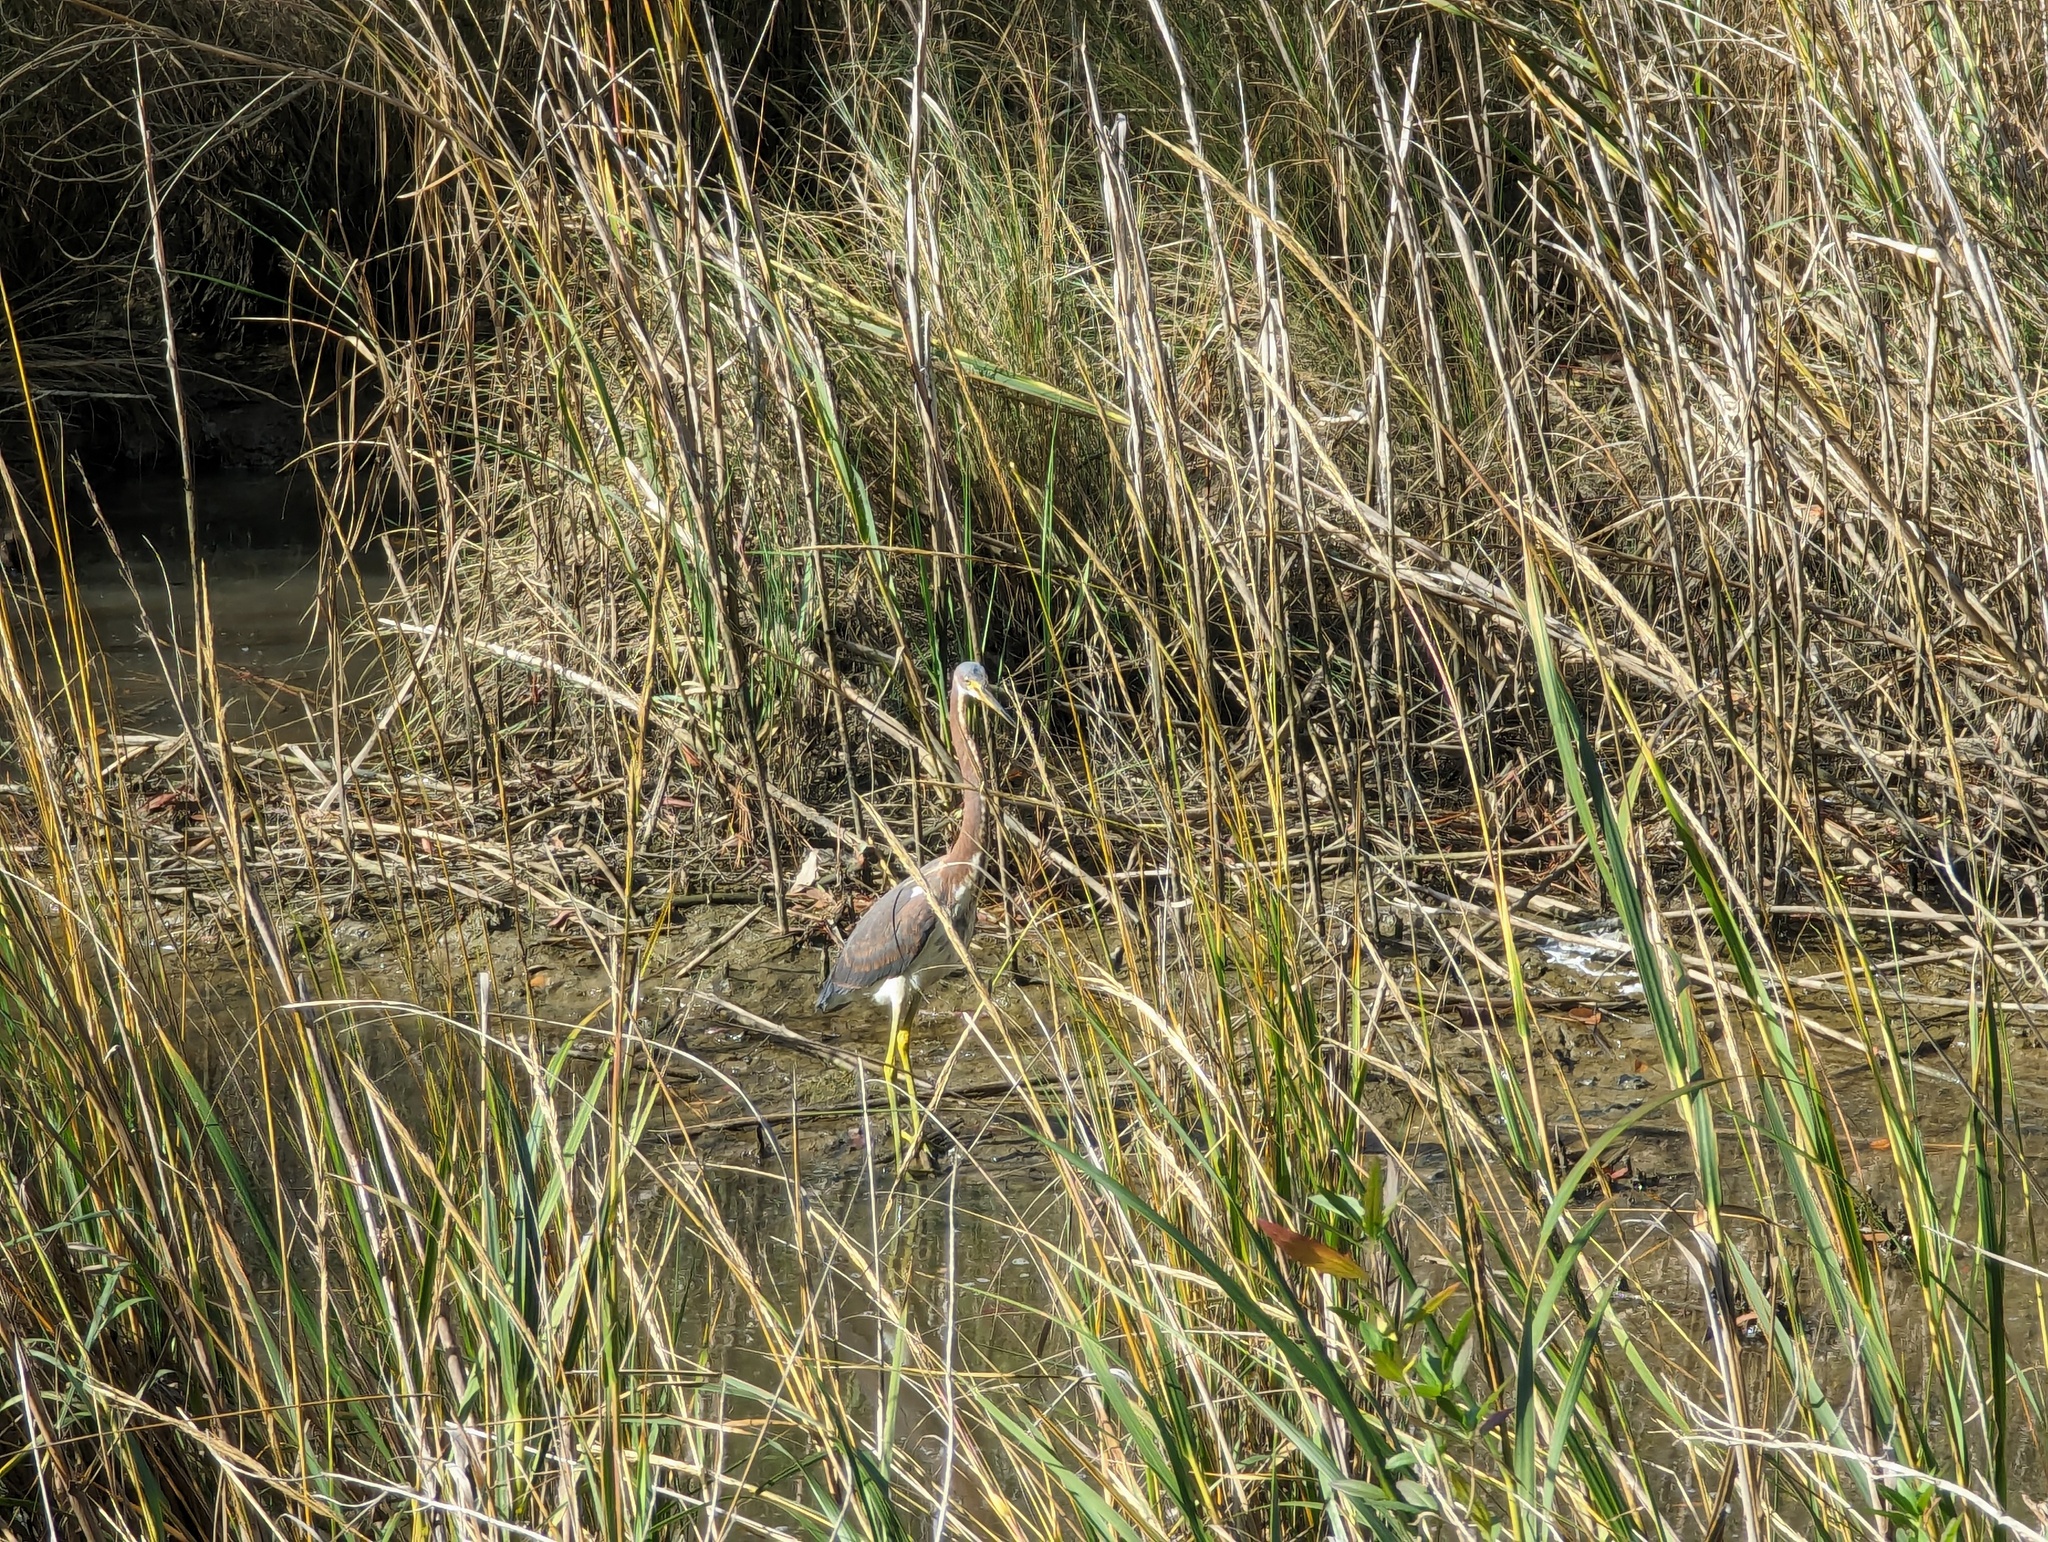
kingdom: Animalia
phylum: Chordata
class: Aves
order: Pelecaniformes
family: Ardeidae
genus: Egretta
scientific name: Egretta tricolor
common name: Tricolored heron
